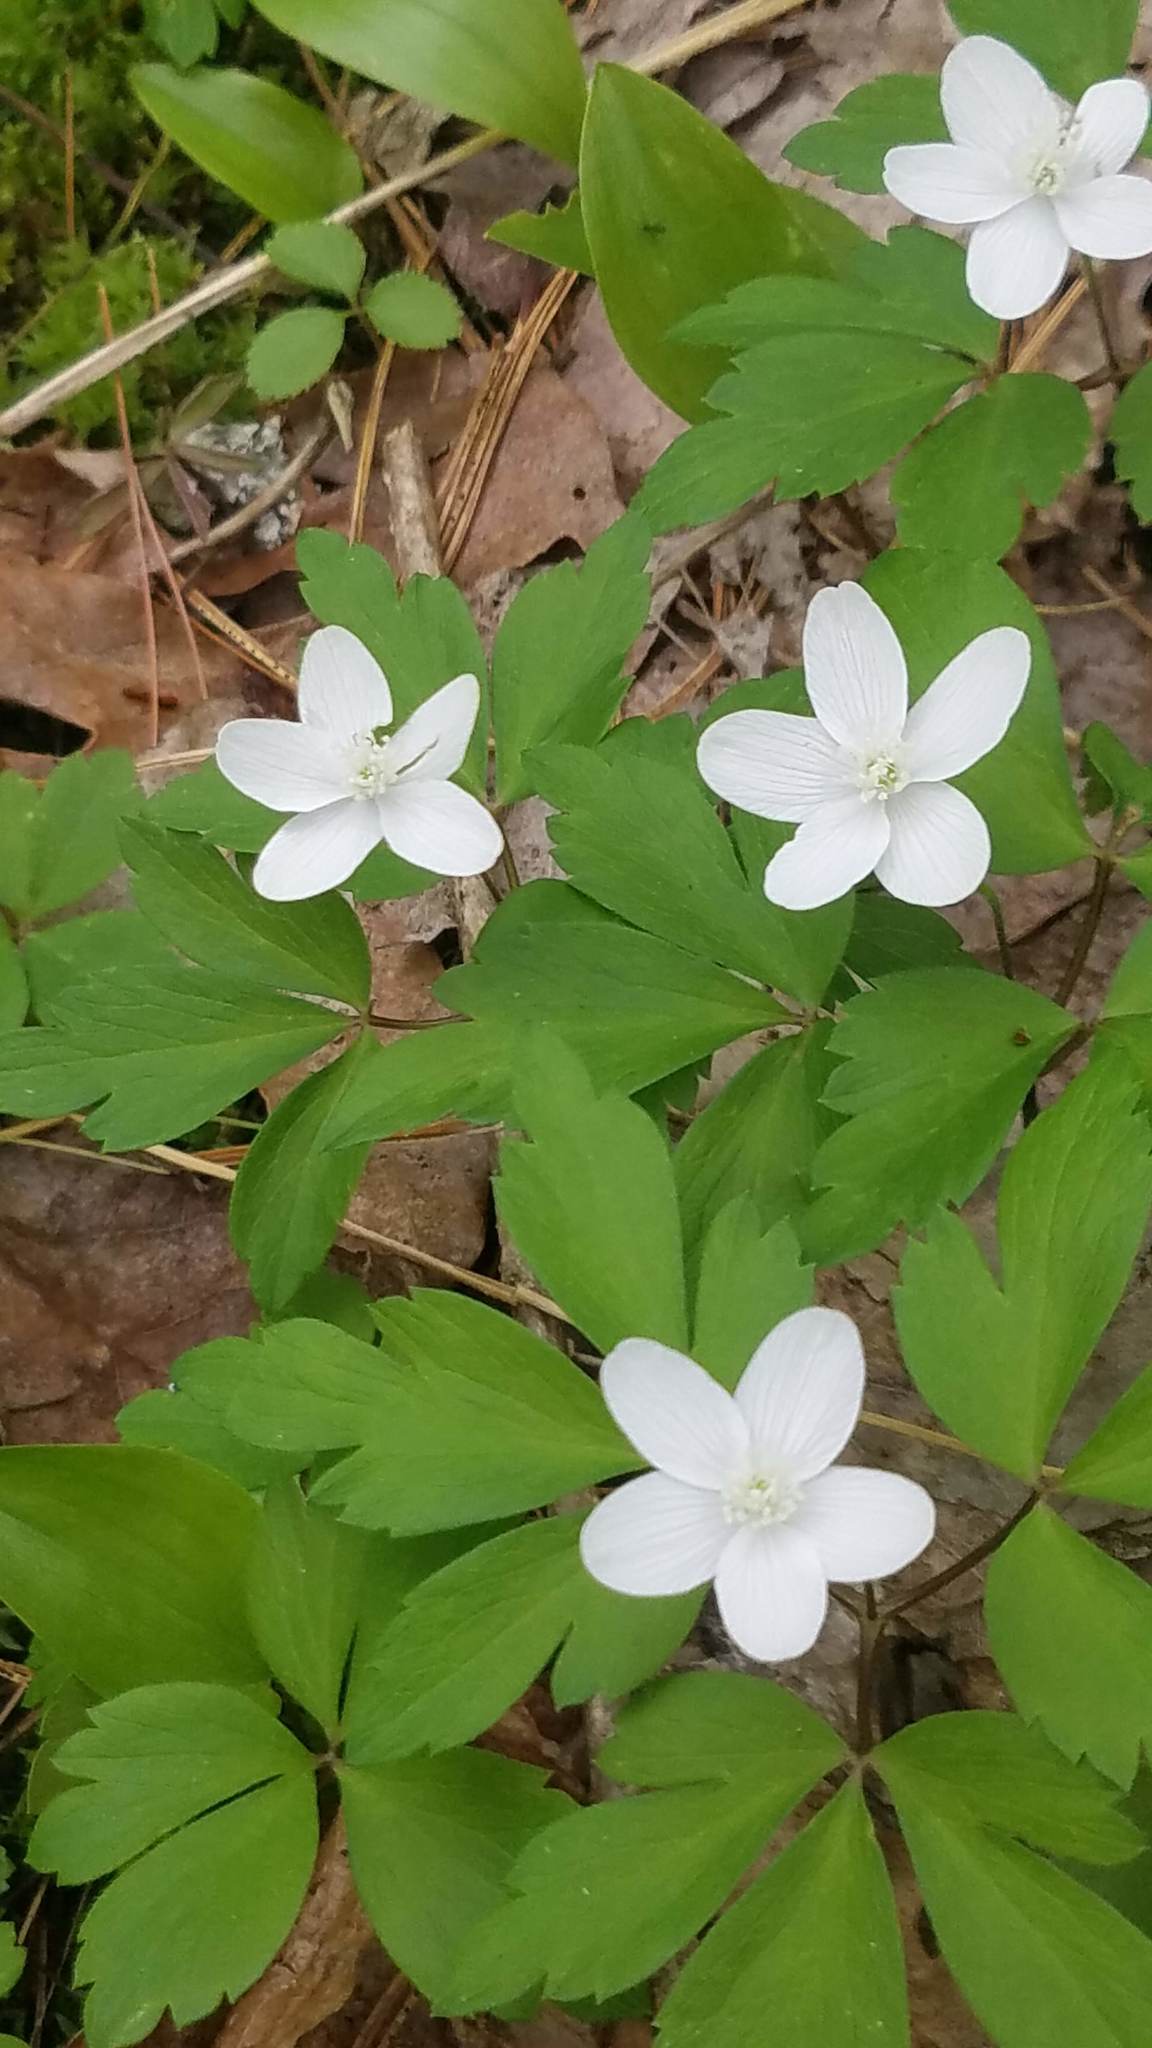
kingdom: Plantae
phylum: Tracheophyta
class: Magnoliopsida
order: Ranunculales
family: Ranunculaceae
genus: Anemone
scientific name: Anemone quinquefolia
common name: Wood anemone
